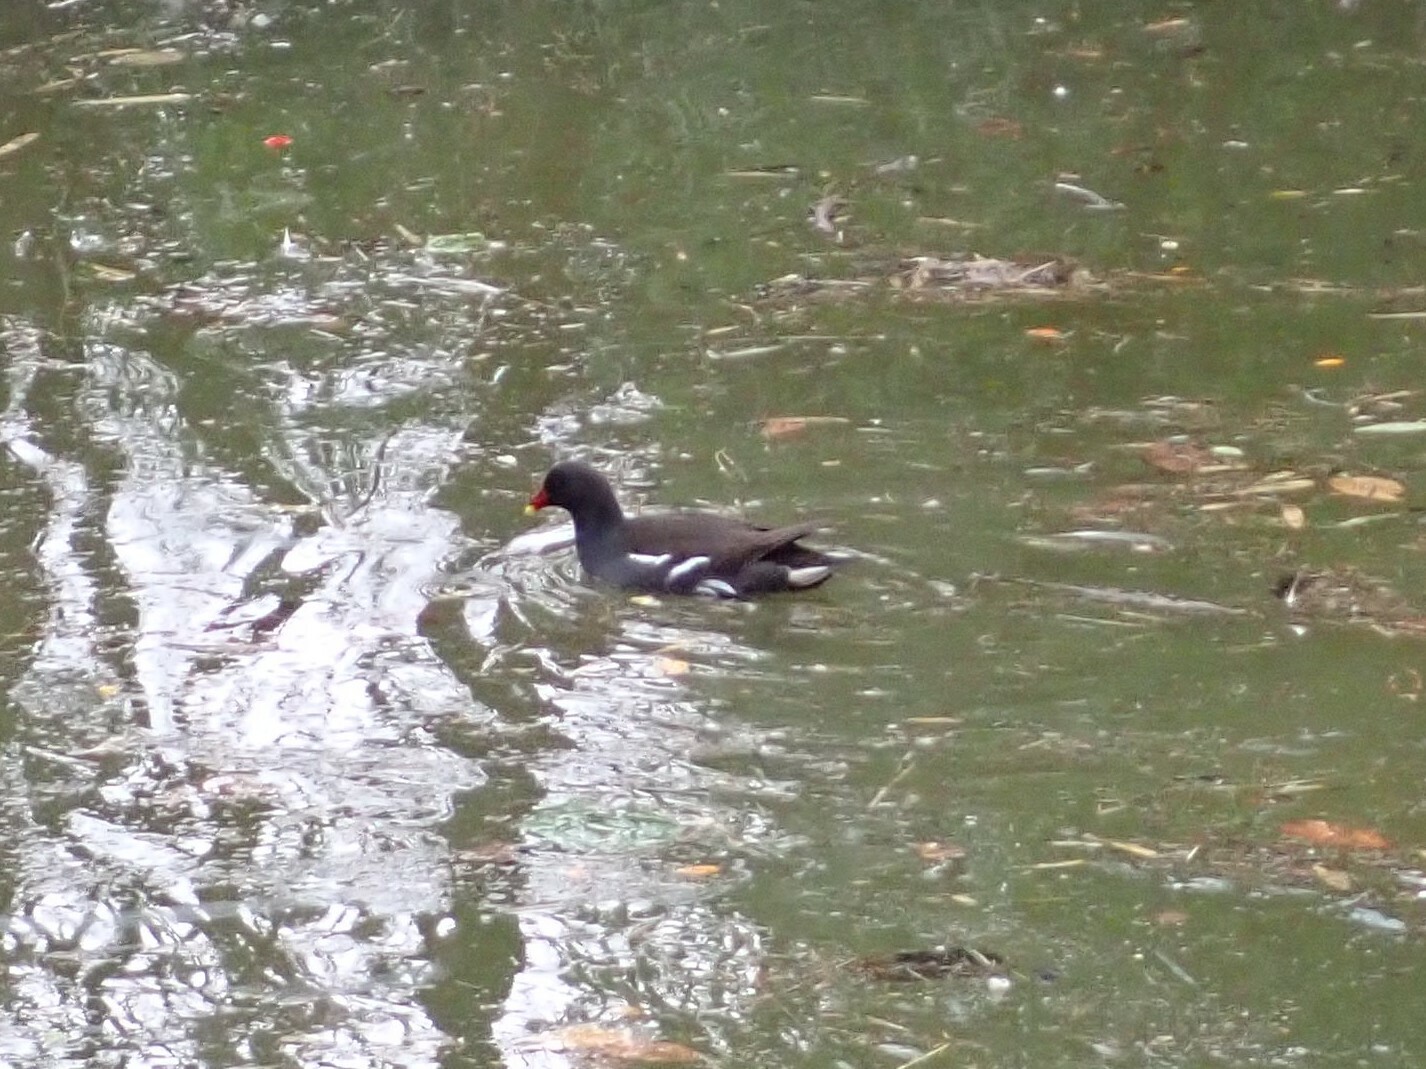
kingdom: Animalia
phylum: Chordata
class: Aves
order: Gruiformes
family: Rallidae
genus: Gallinula
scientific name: Gallinula chloropus
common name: Common moorhen
